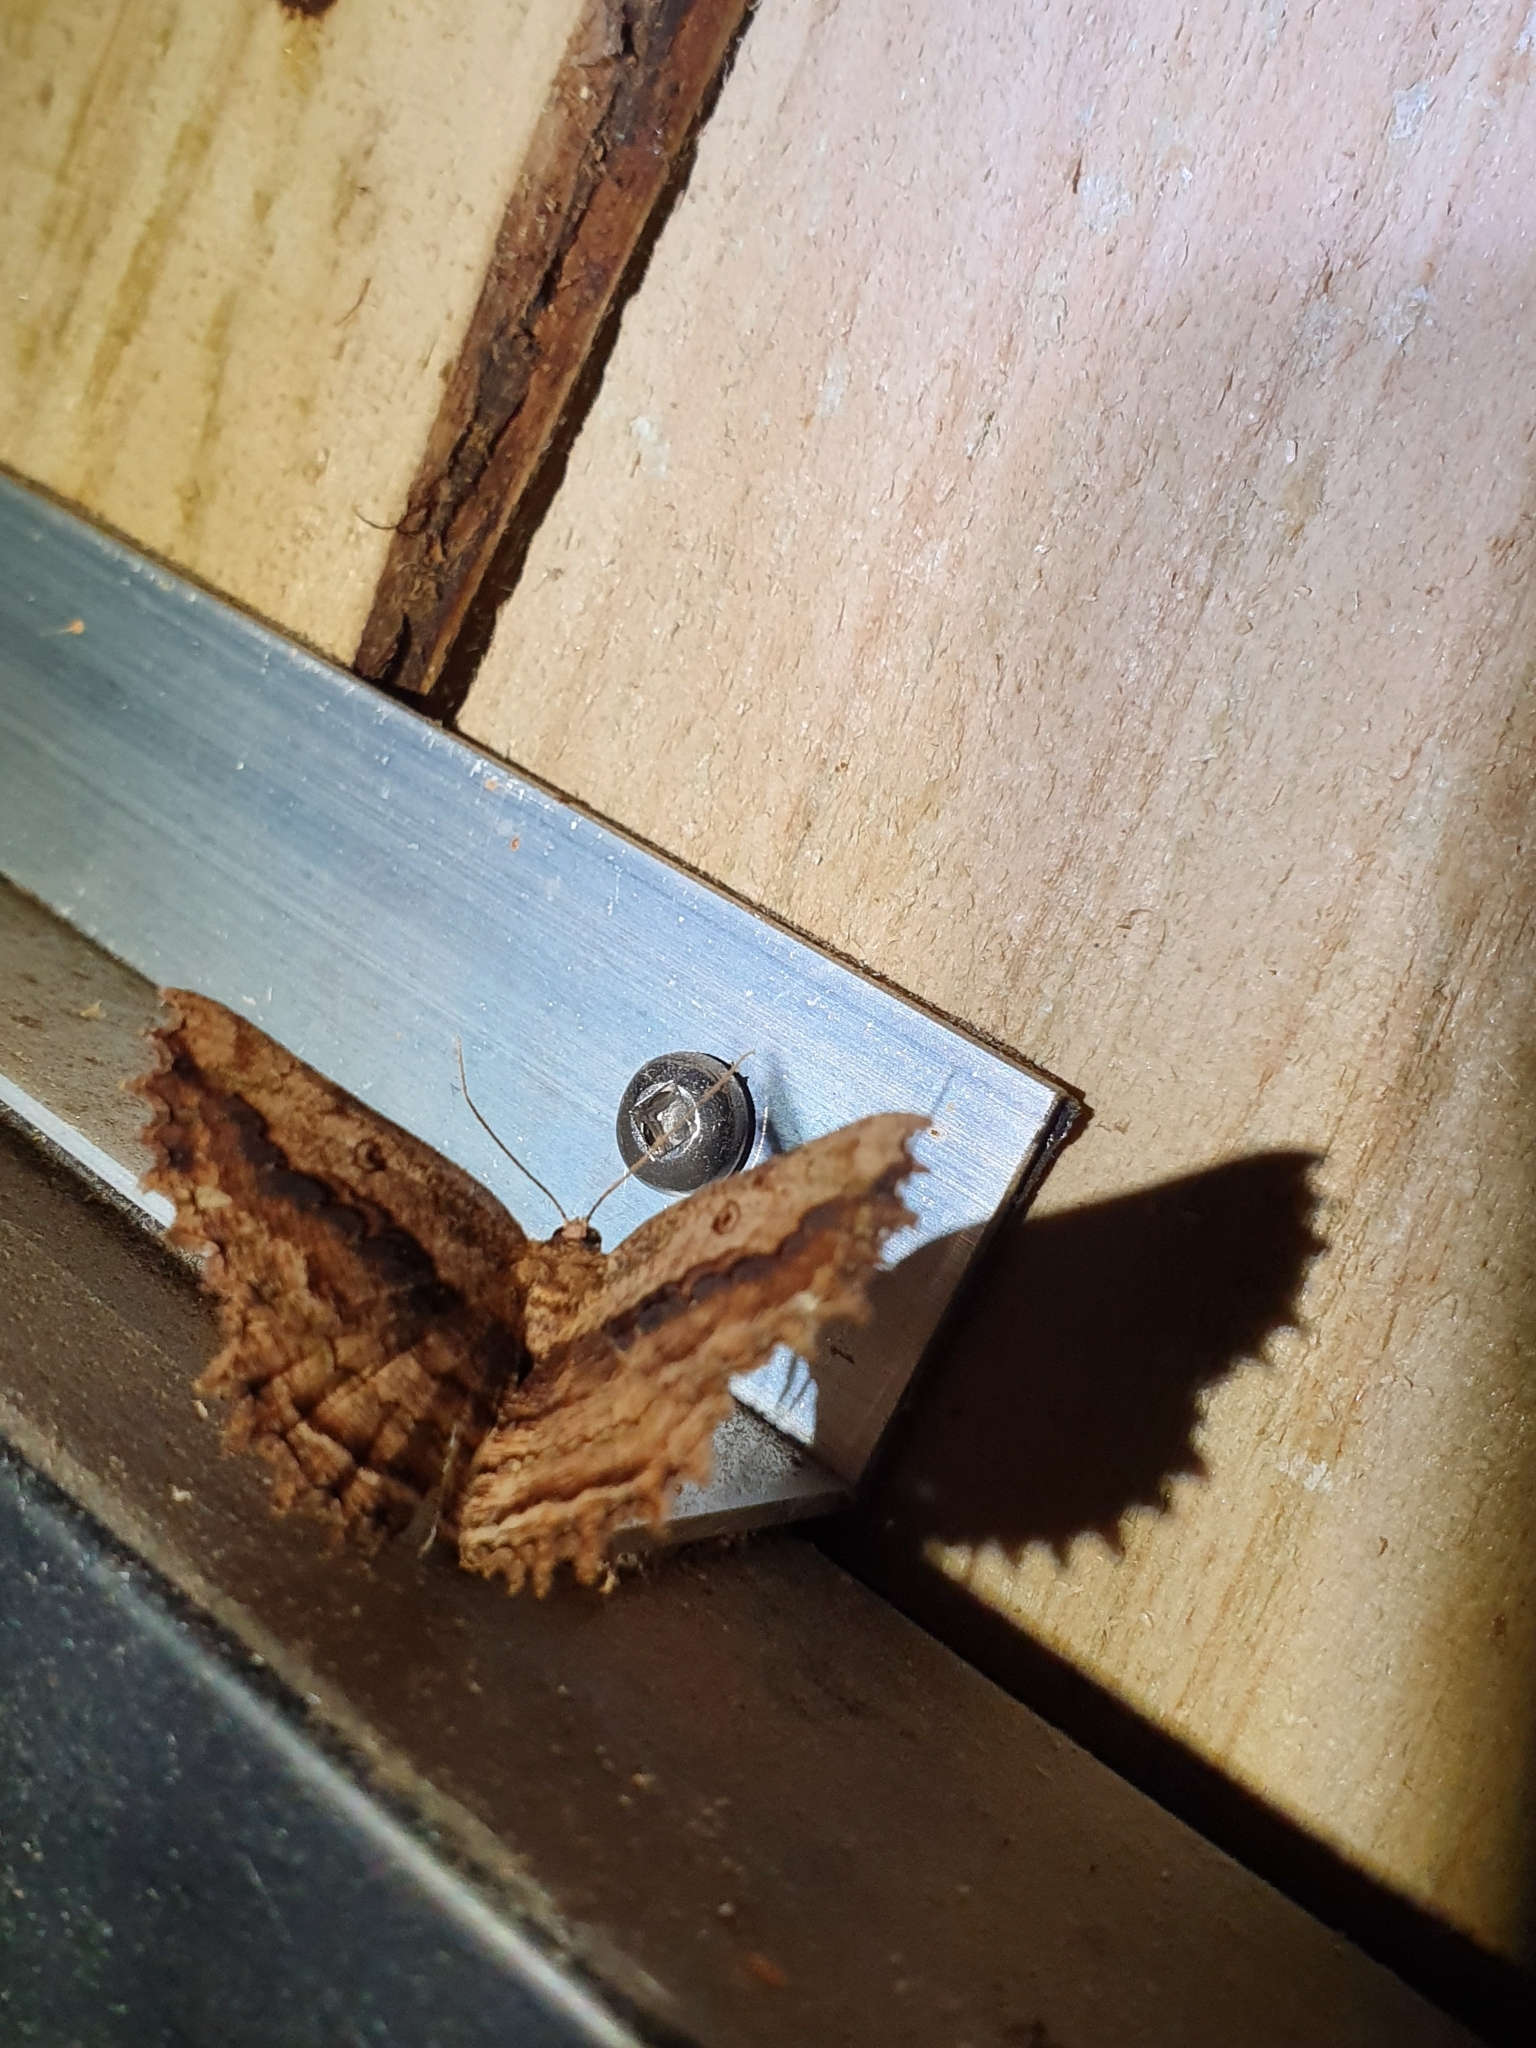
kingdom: Animalia
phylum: Arthropoda
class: Insecta
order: Lepidoptera
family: Geometridae
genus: Gellonia
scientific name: Gellonia pannularia
